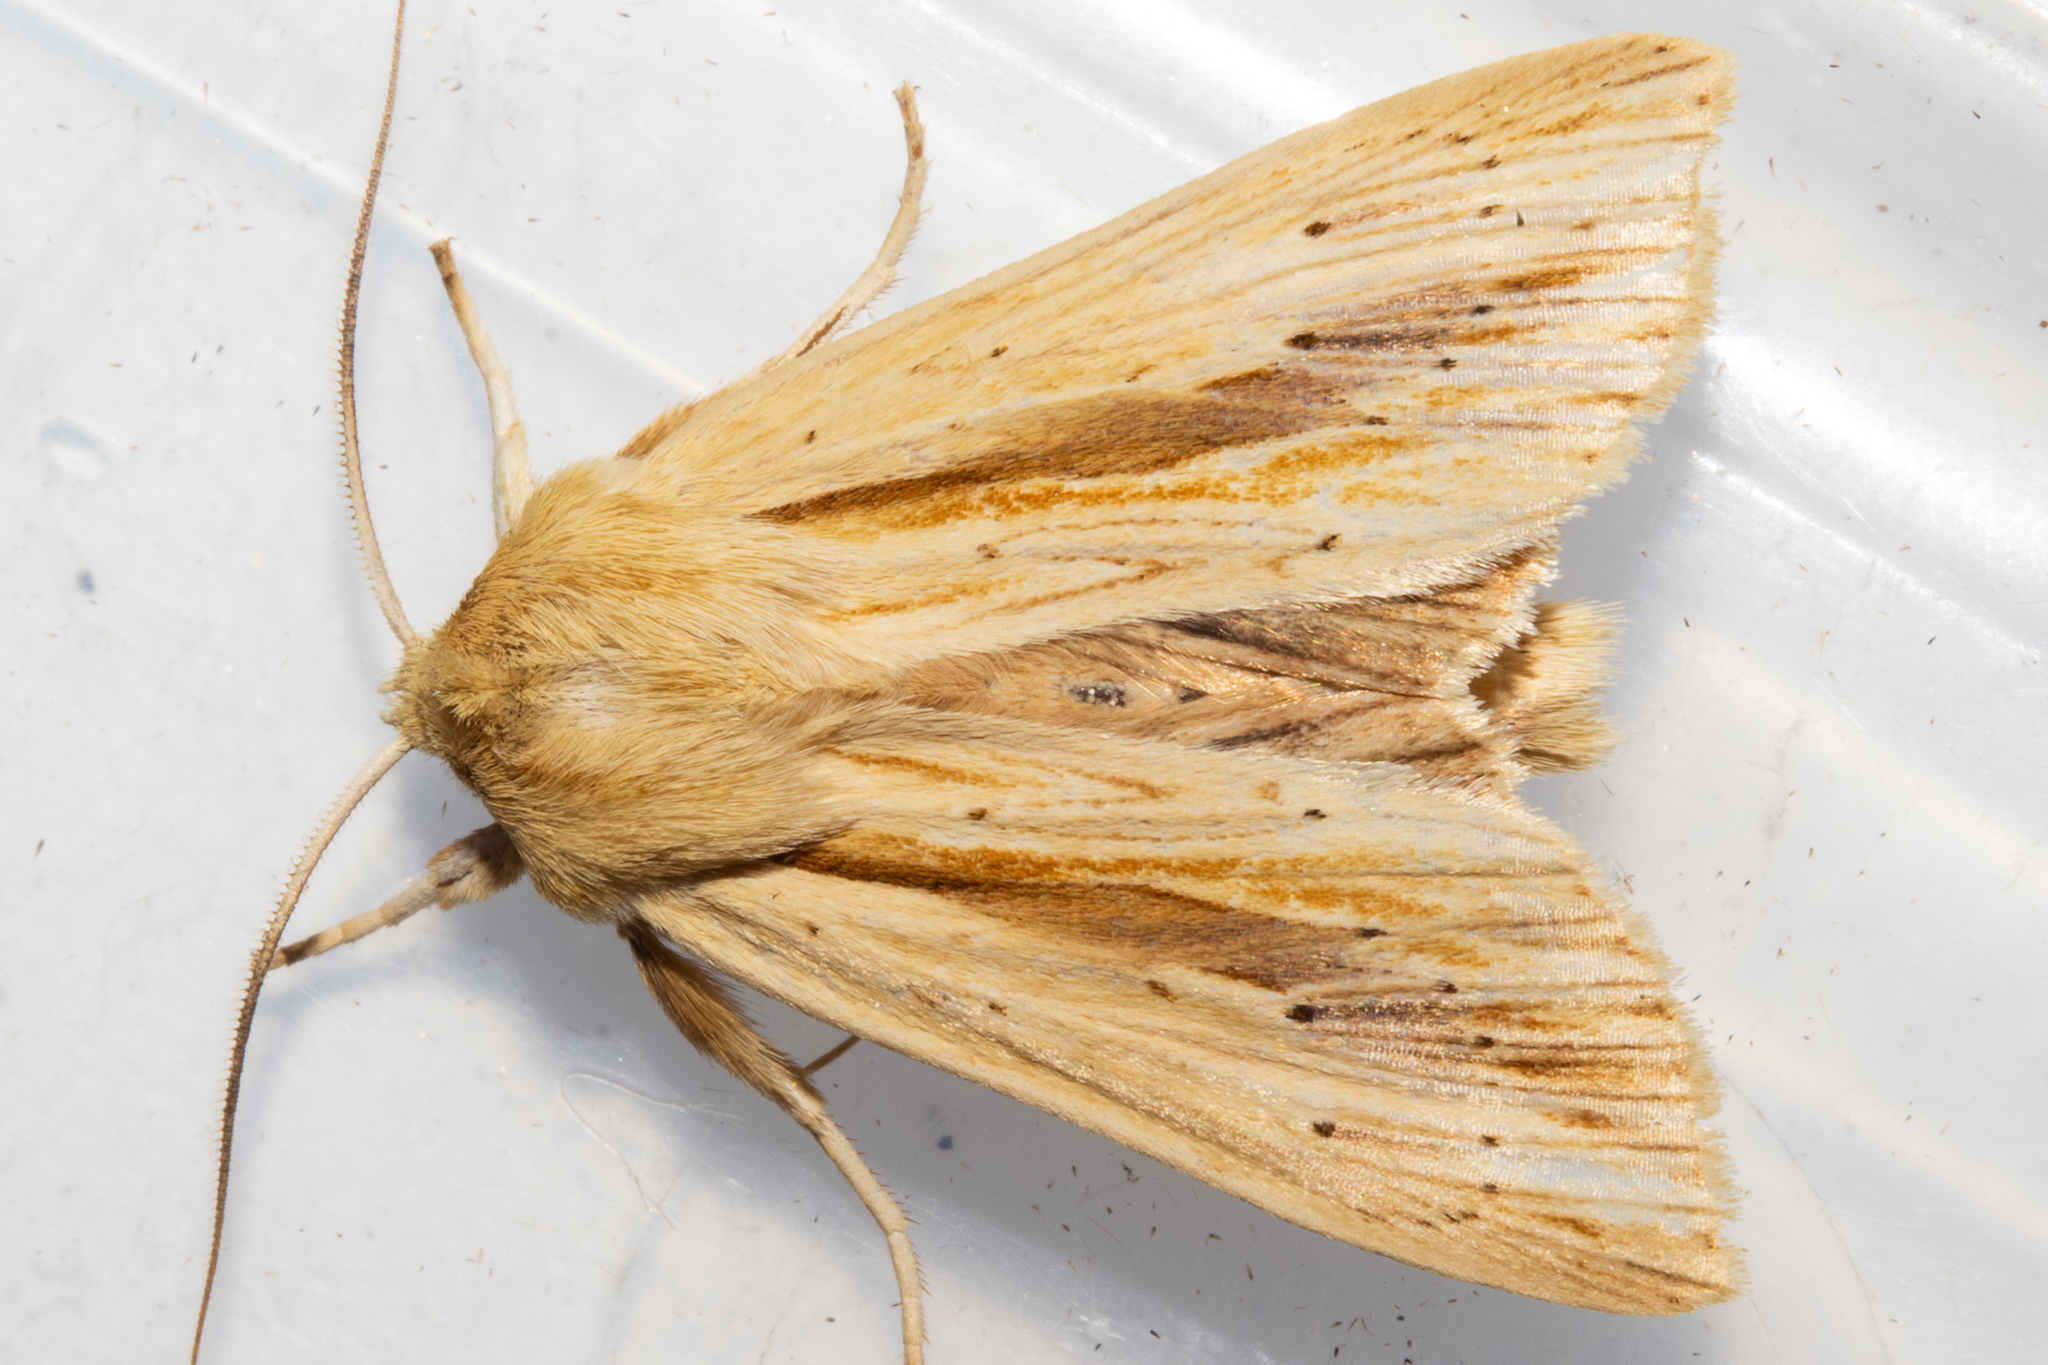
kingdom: Animalia
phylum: Arthropoda
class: Insecta
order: Lepidoptera
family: Noctuidae
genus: Ichneutica
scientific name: Ichneutica semivittata
